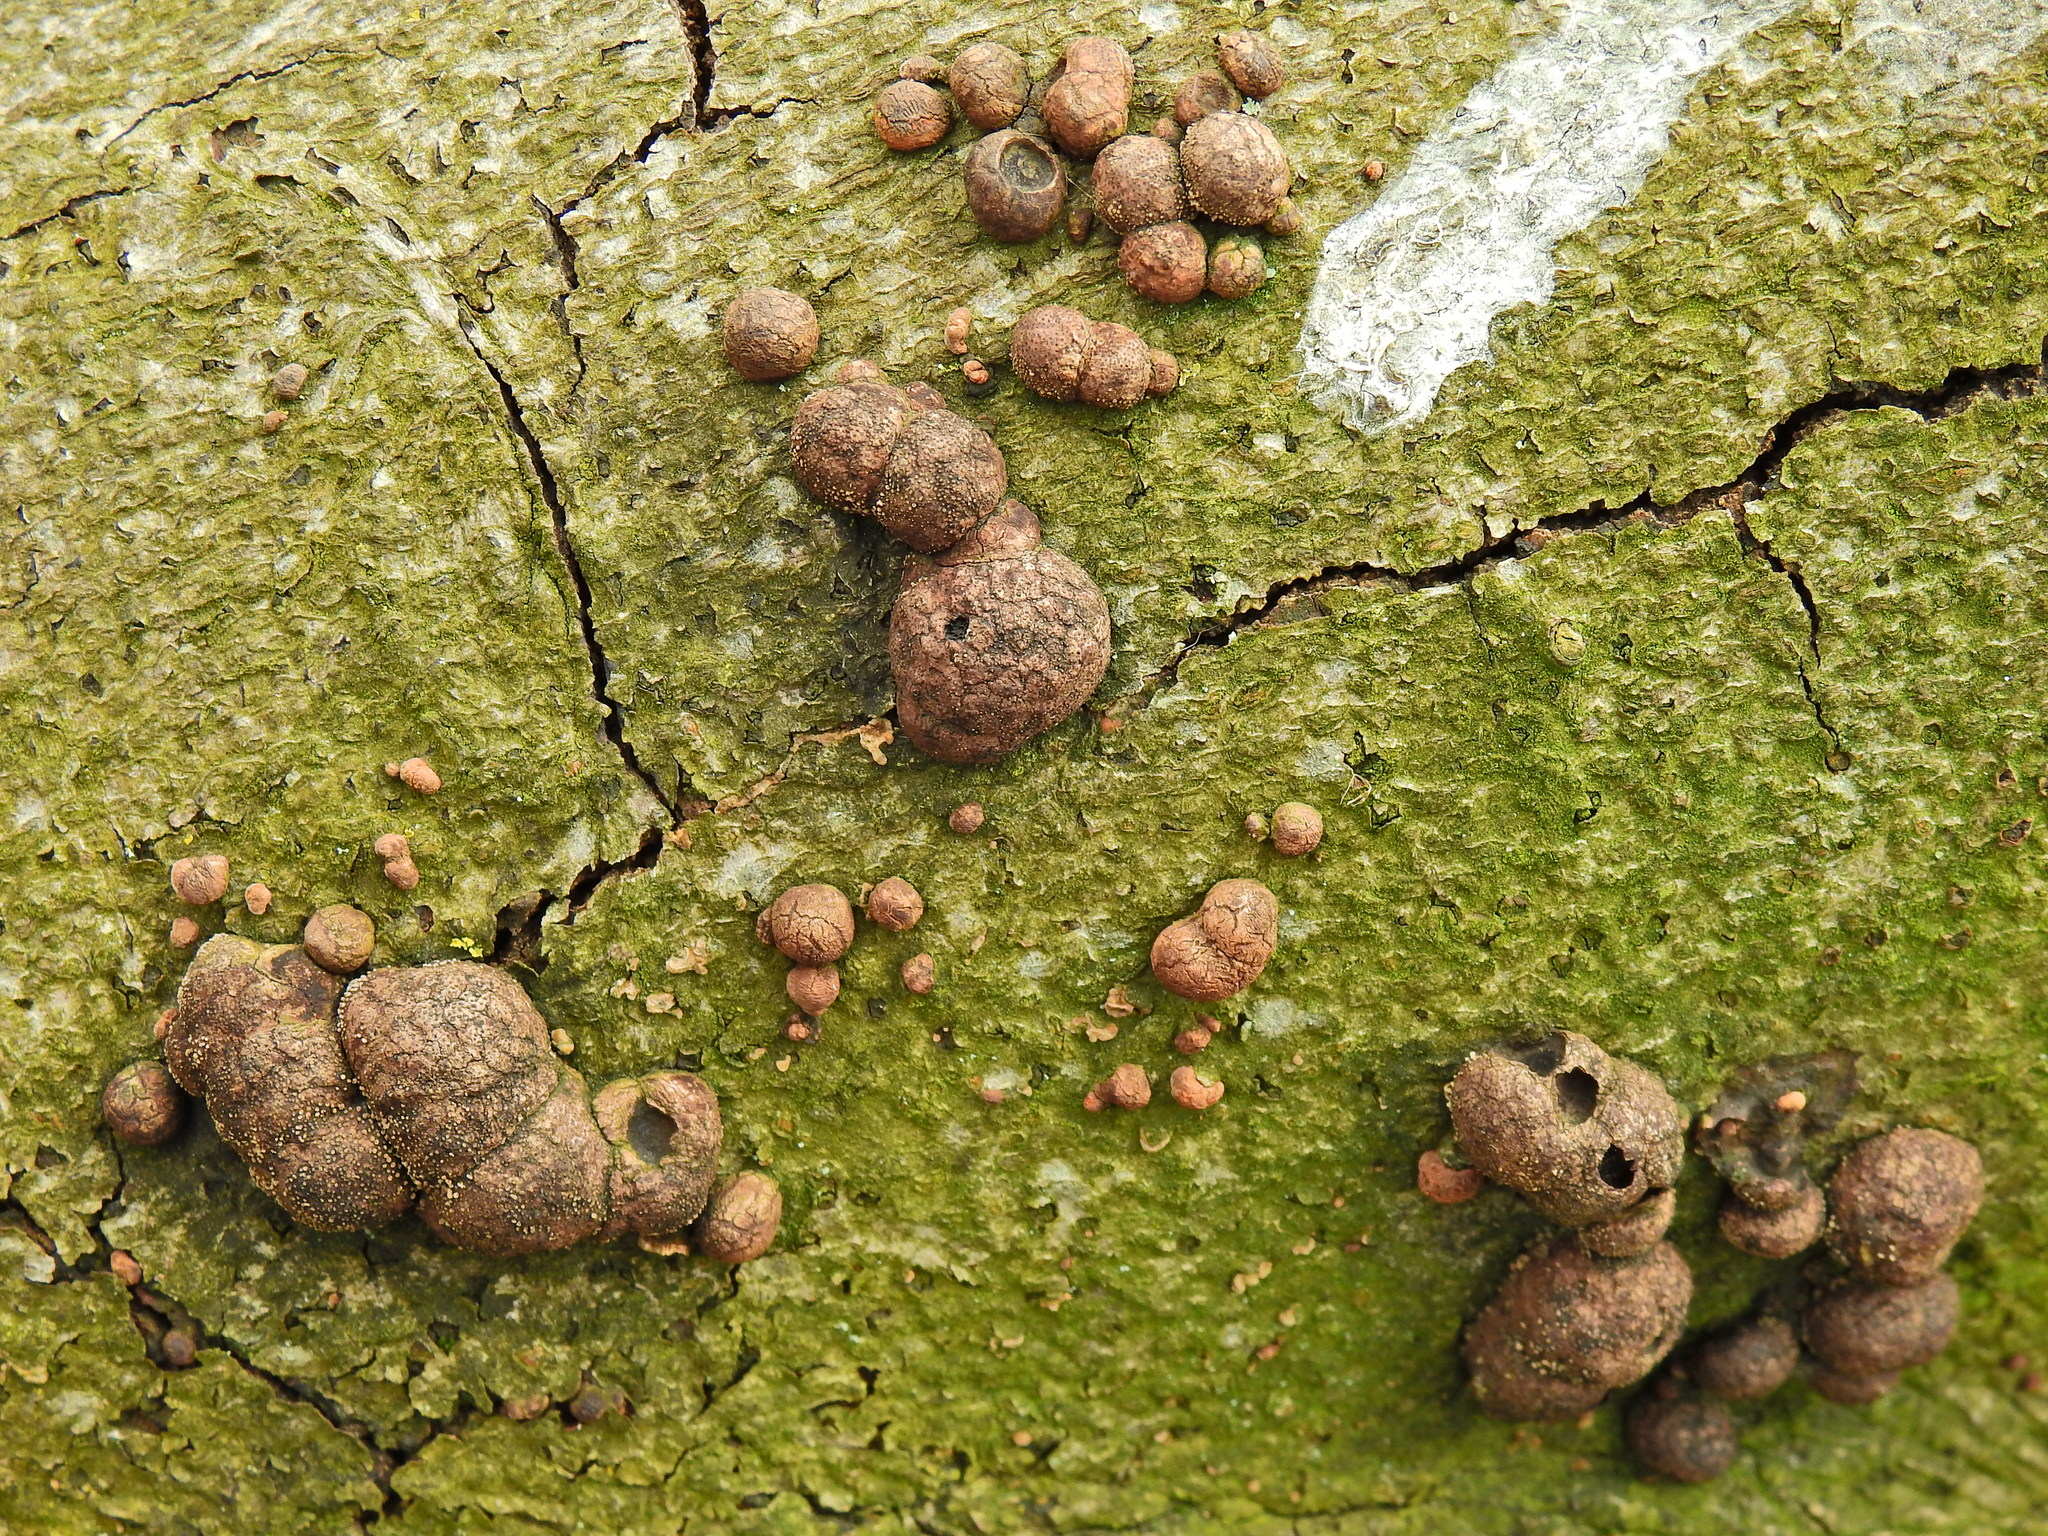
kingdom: Fungi
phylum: Ascomycota
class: Sordariomycetes
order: Xylariales
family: Hypoxylaceae
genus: Hypoxylon
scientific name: Hypoxylon fragiforme
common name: Beech woodwart
